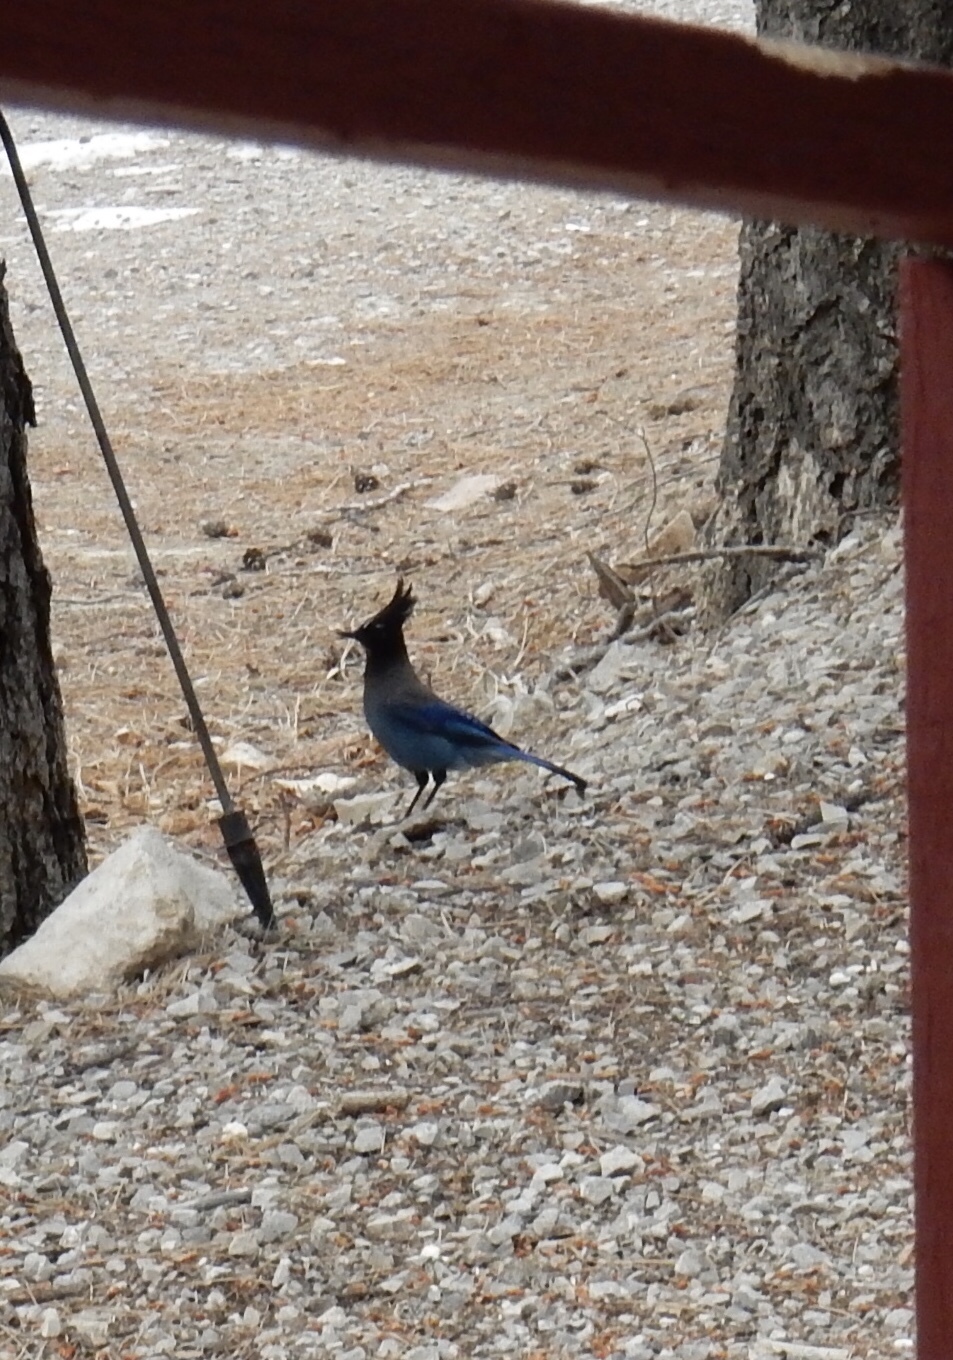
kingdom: Animalia
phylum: Chordata
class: Aves
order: Passeriformes
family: Corvidae
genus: Cyanocitta
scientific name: Cyanocitta stelleri
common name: Steller's jay
